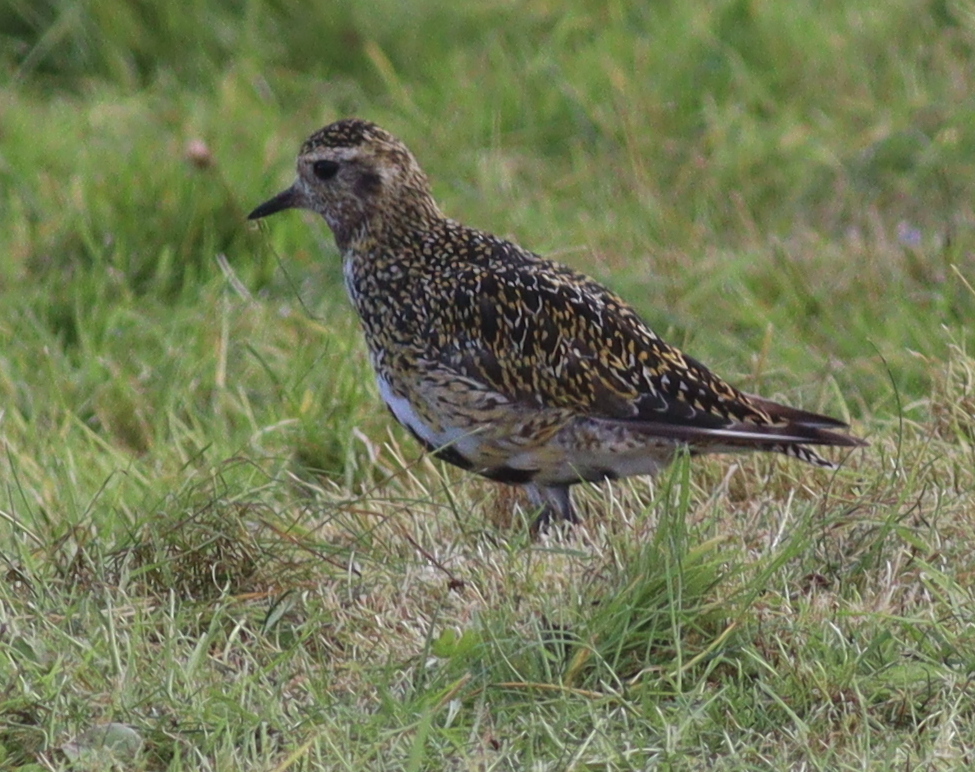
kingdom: Animalia
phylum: Chordata
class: Aves
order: Charadriiformes
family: Charadriidae
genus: Pluvialis
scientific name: Pluvialis apricaria
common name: European golden plover
